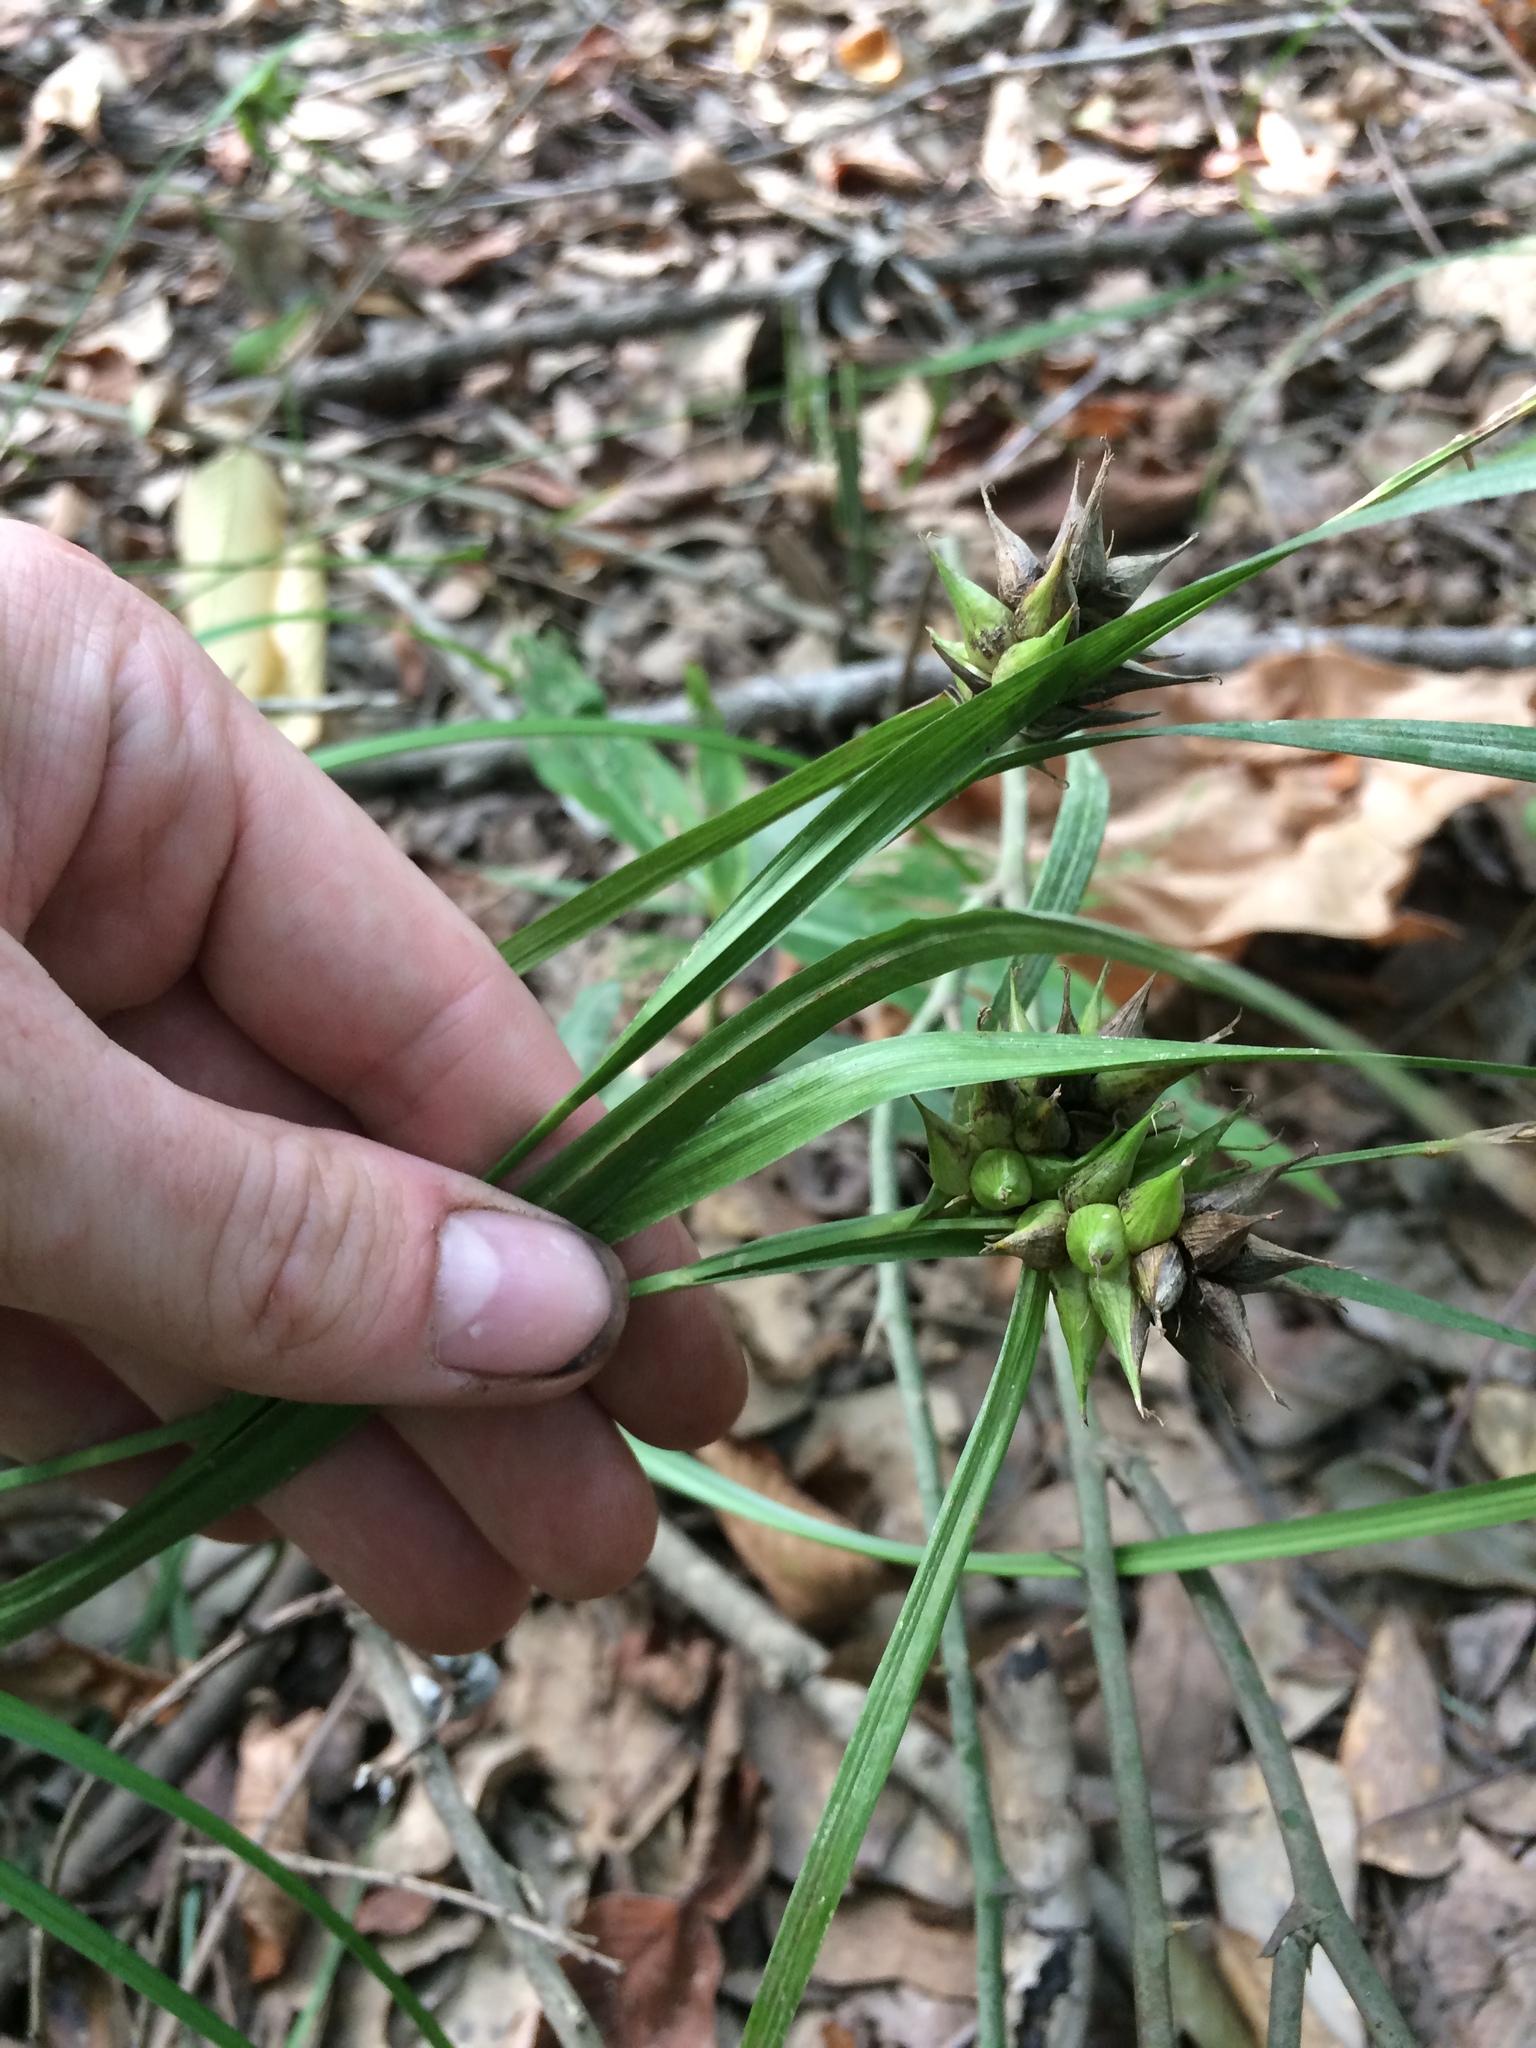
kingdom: Plantae
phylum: Tracheophyta
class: Liliopsida
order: Poales
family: Cyperaceae
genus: Carex
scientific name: Carex intumescens
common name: Greater bladder sedge
